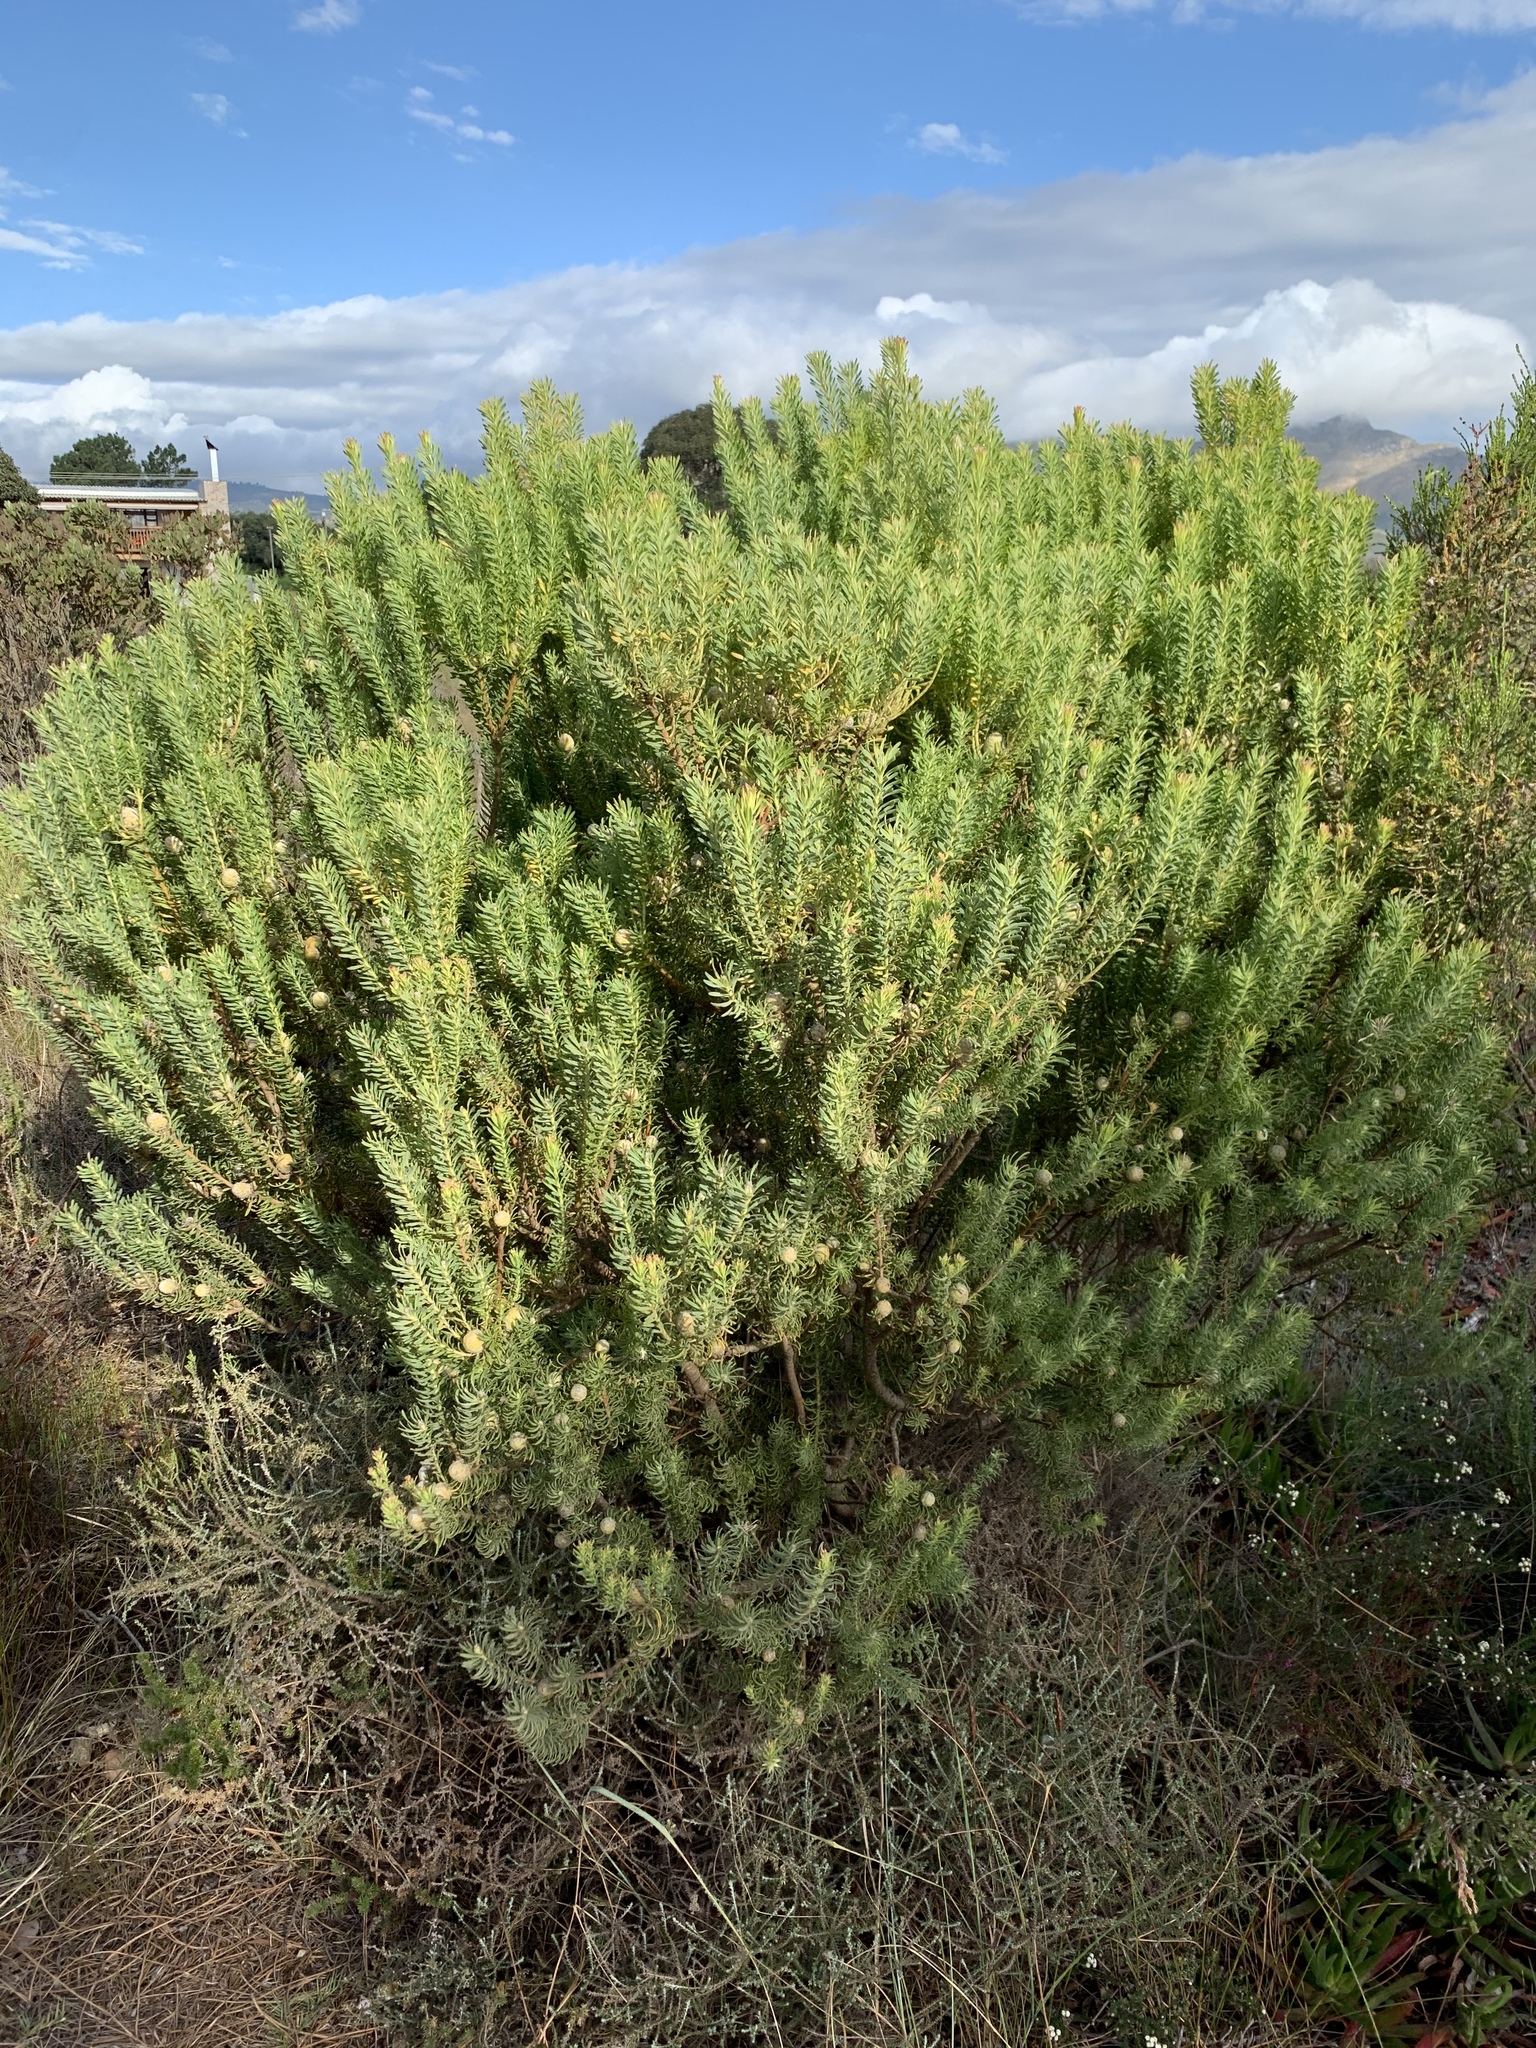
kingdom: Plantae
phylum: Tracheophyta
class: Magnoliopsida
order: Proteales
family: Proteaceae
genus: Leucadendron
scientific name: Leucadendron linifolium
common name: Line-leaf conebush
